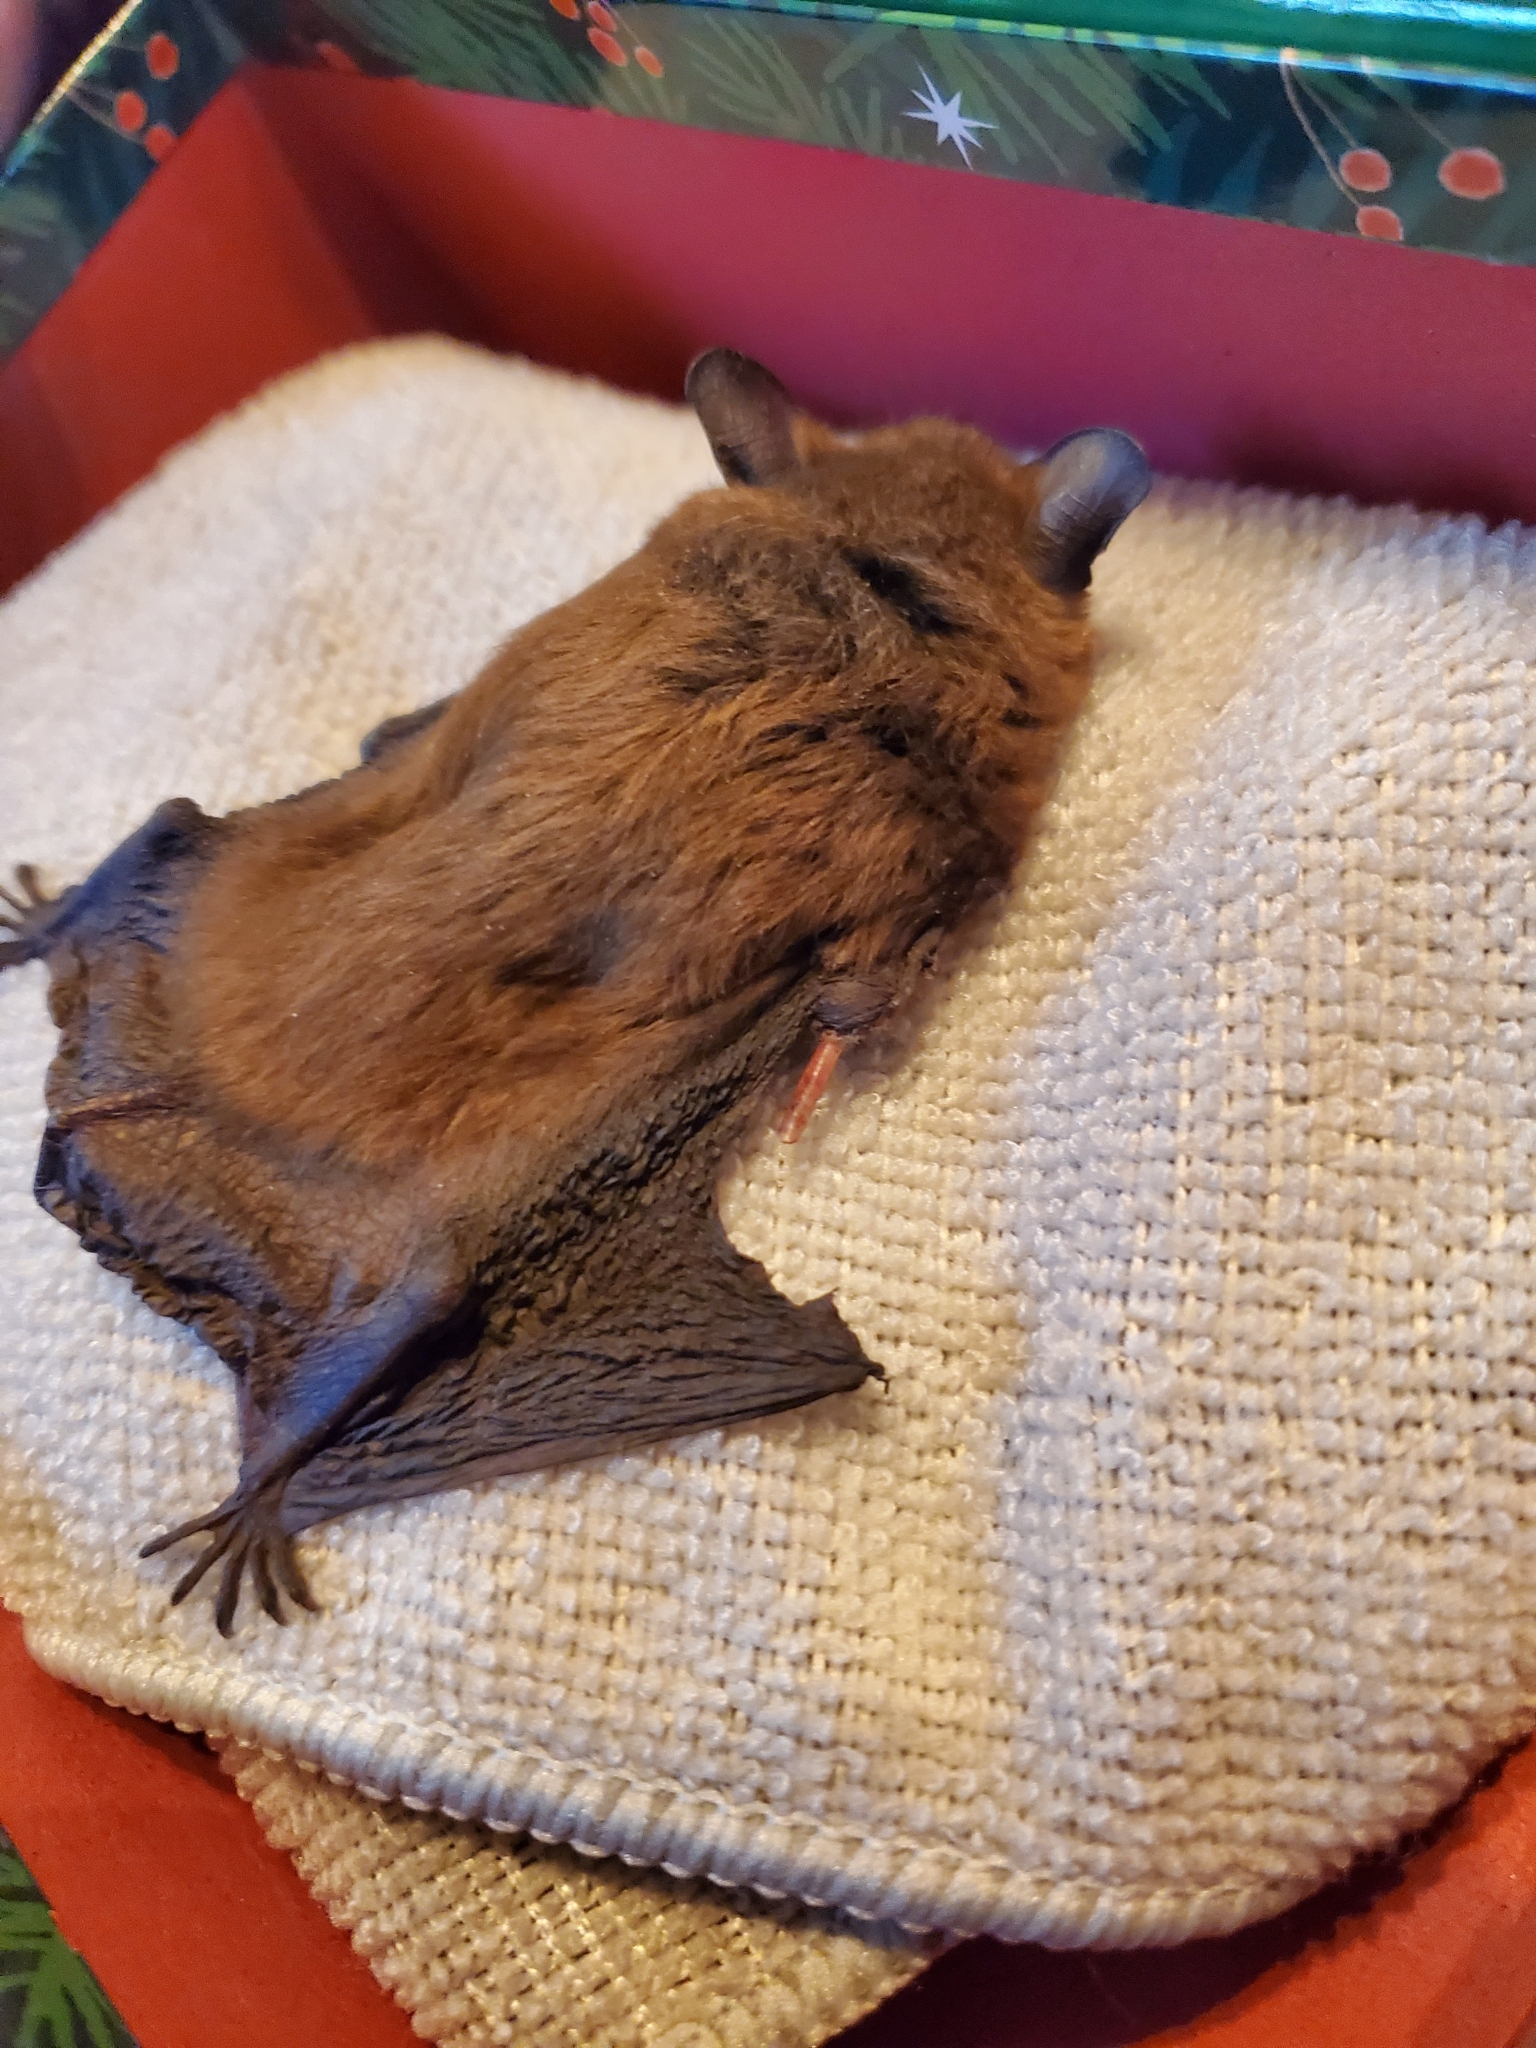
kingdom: Animalia
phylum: Chordata
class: Mammalia
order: Chiroptera
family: Vespertilionidae
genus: Eptesicus
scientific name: Eptesicus fuscus
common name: Big brown bat
